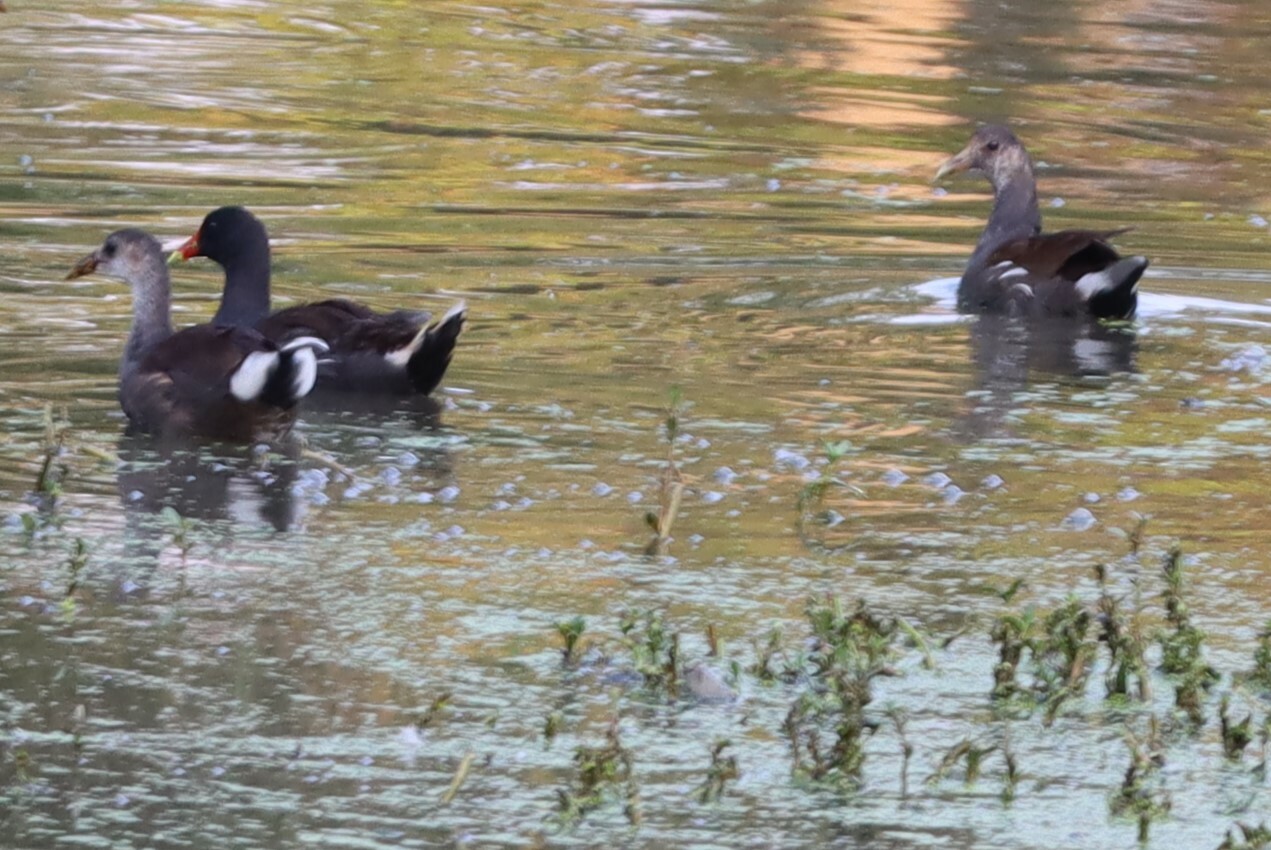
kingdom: Animalia
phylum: Chordata
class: Aves
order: Gruiformes
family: Rallidae
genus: Gallinula
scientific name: Gallinula chloropus
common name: Common moorhen
